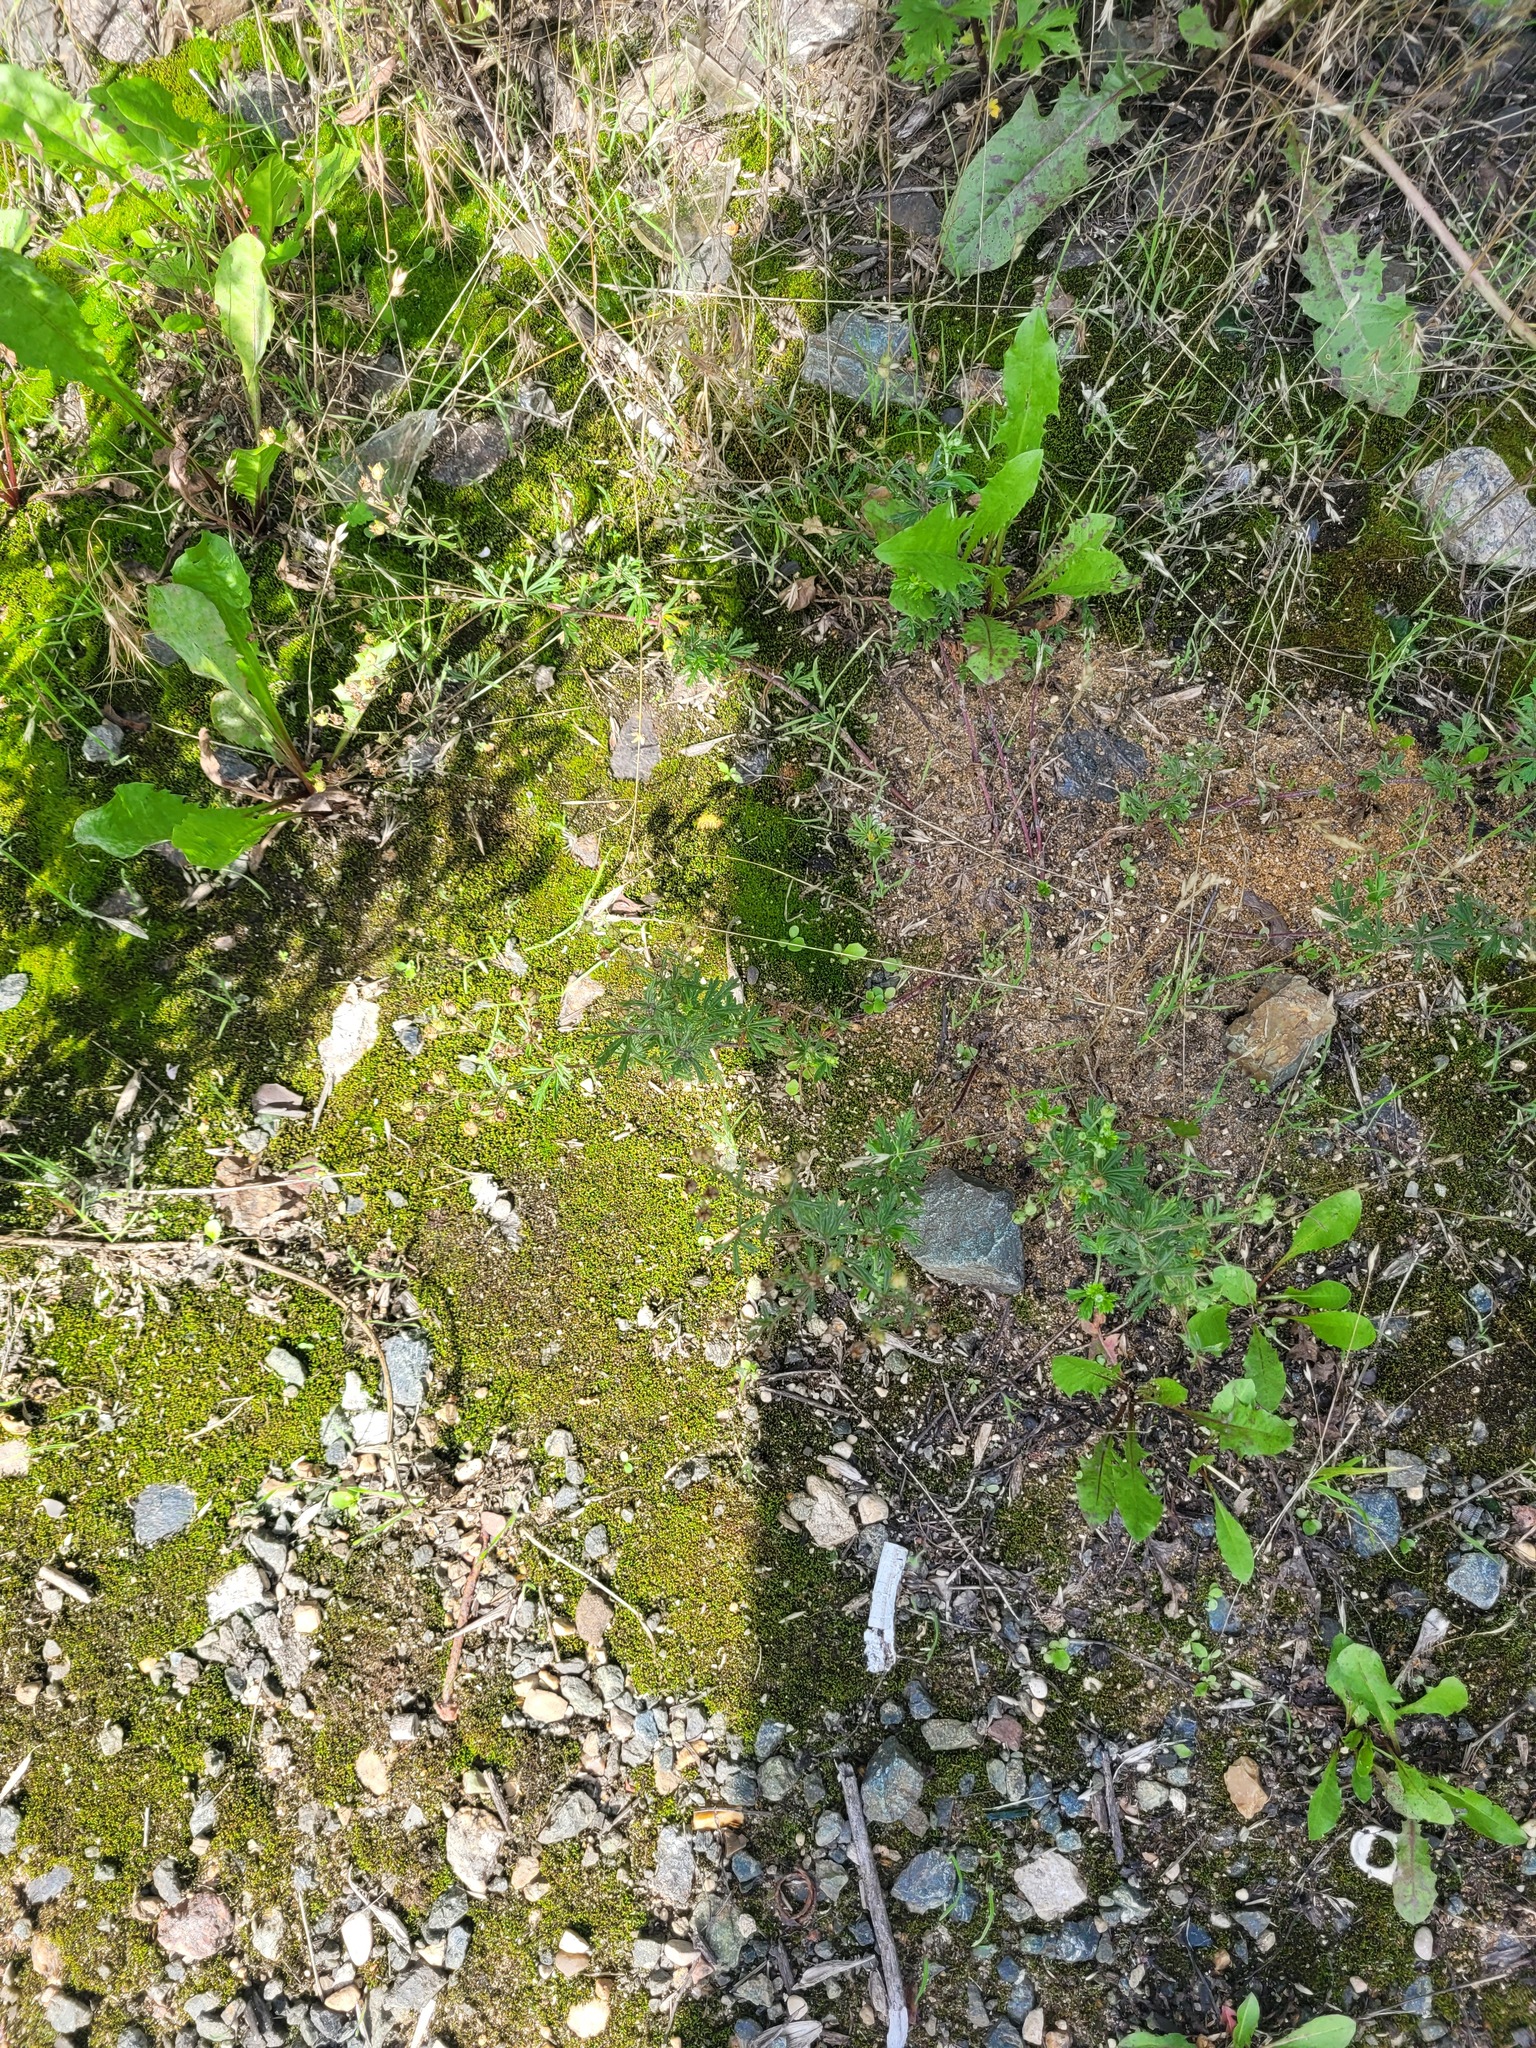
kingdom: Plantae
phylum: Tracheophyta
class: Magnoliopsida
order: Rosales
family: Rosaceae
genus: Potentilla
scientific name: Potentilla argentea
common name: Hoary cinquefoil
